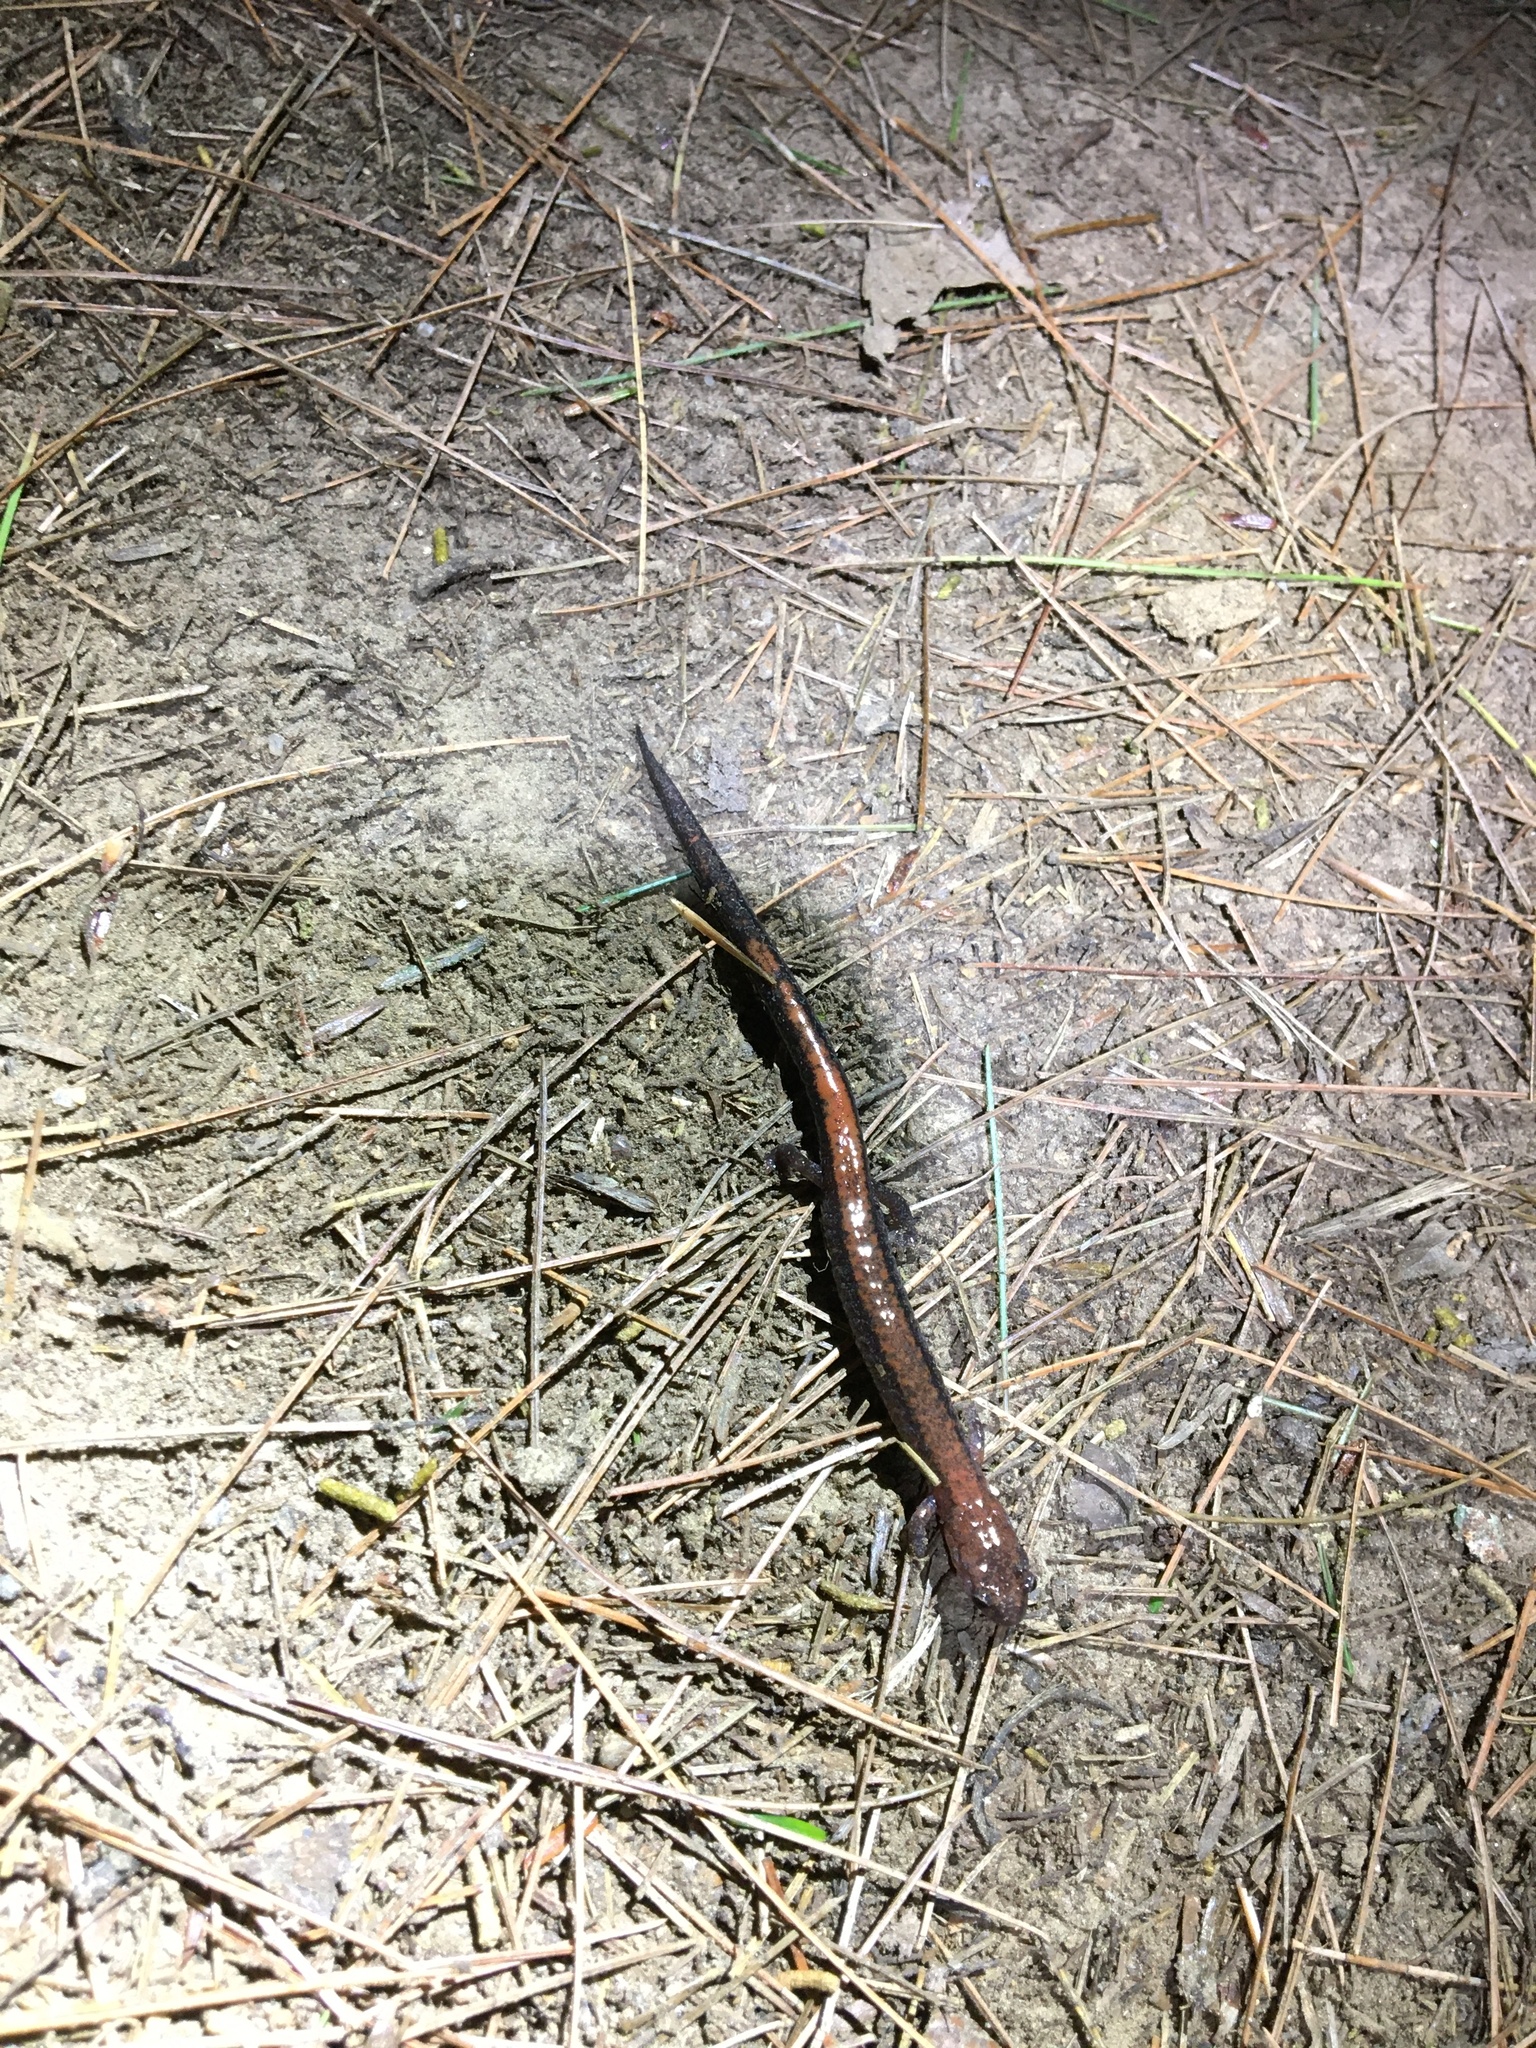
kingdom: Animalia
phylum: Chordata
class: Amphibia
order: Caudata
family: Plethodontidae
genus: Plethodon
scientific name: Plethodon cinereus
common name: Redback salamander
